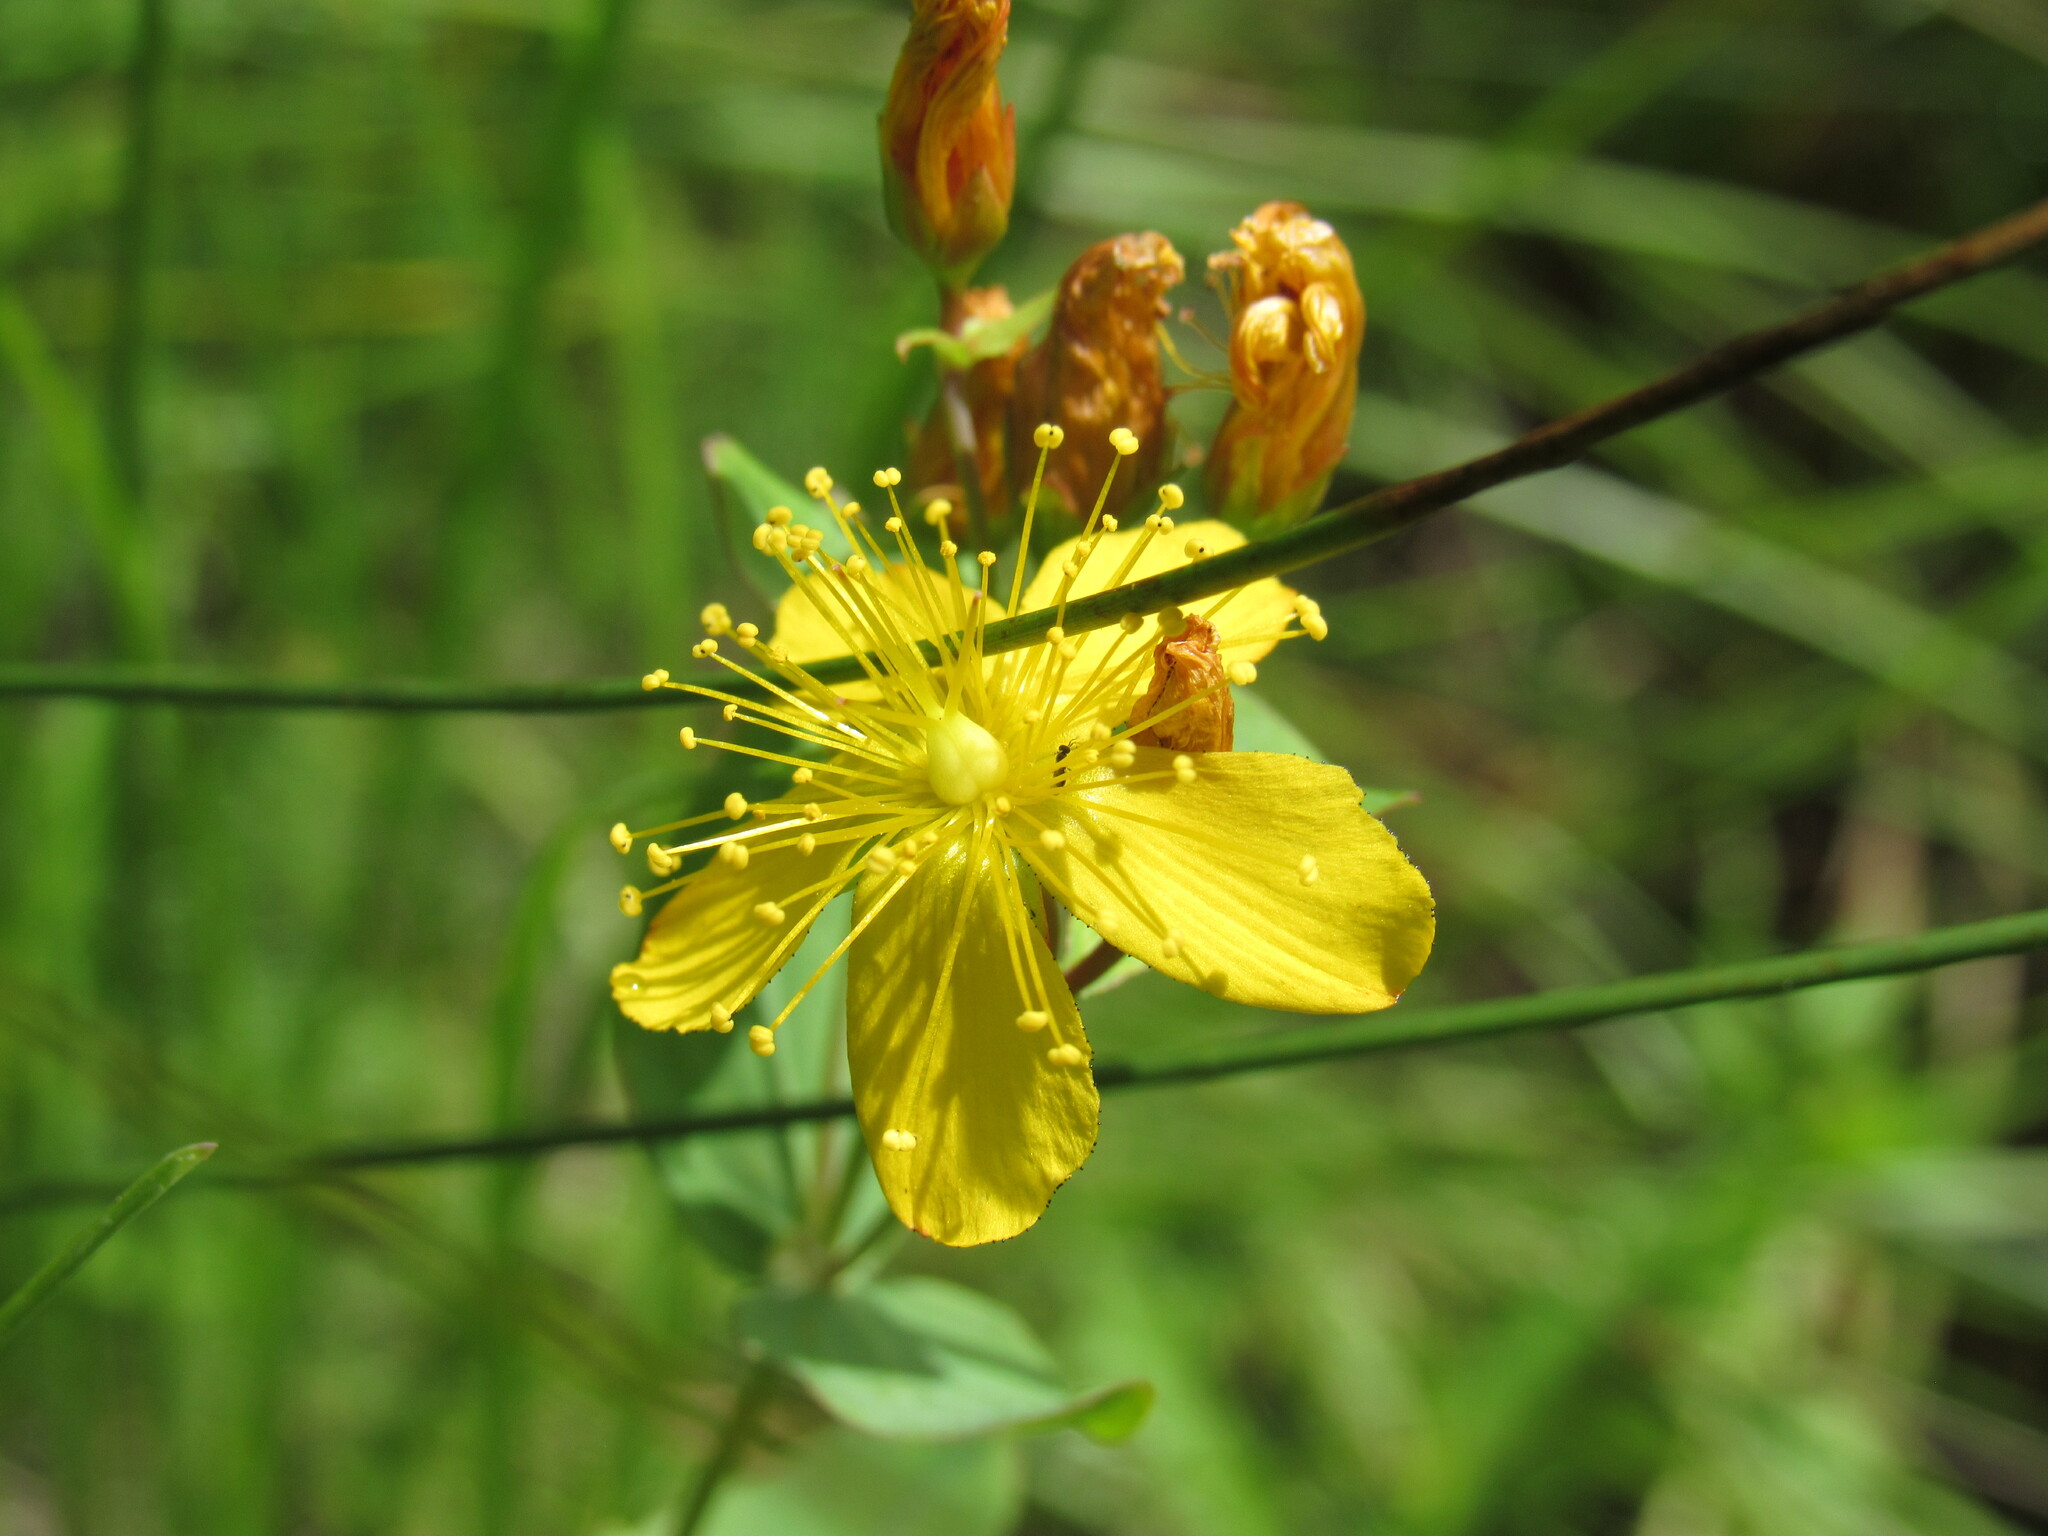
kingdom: Plantae
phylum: Tracheophyta
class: Magnoliopsida
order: Malpighiales
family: Hypericaceae
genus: Hypericum
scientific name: Hypericum scouleri
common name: Scouler's st. john's-wort
